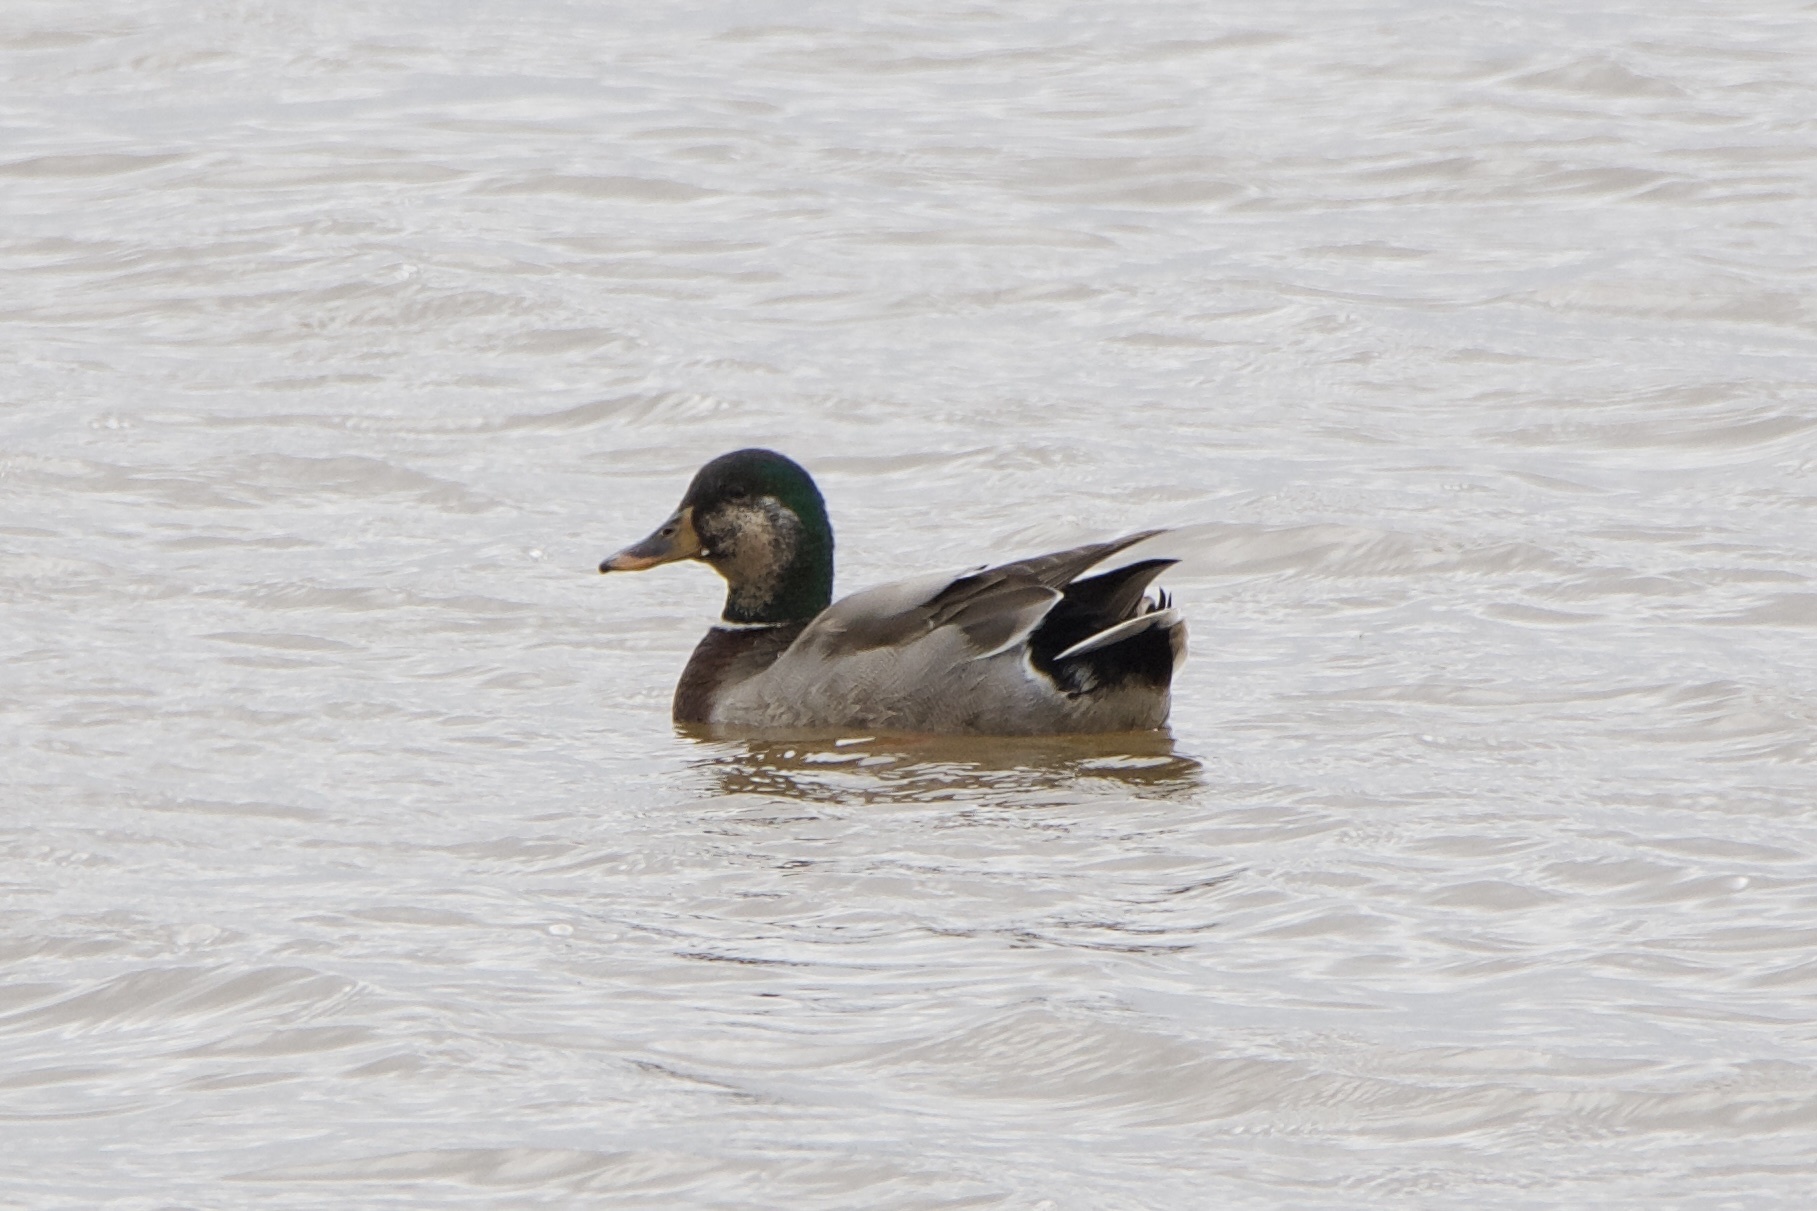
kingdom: Animalia
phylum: Chordata
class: Aves
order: Anseriformes
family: Anatidae
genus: Anas
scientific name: Anas platyrhynchos
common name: Mallard
